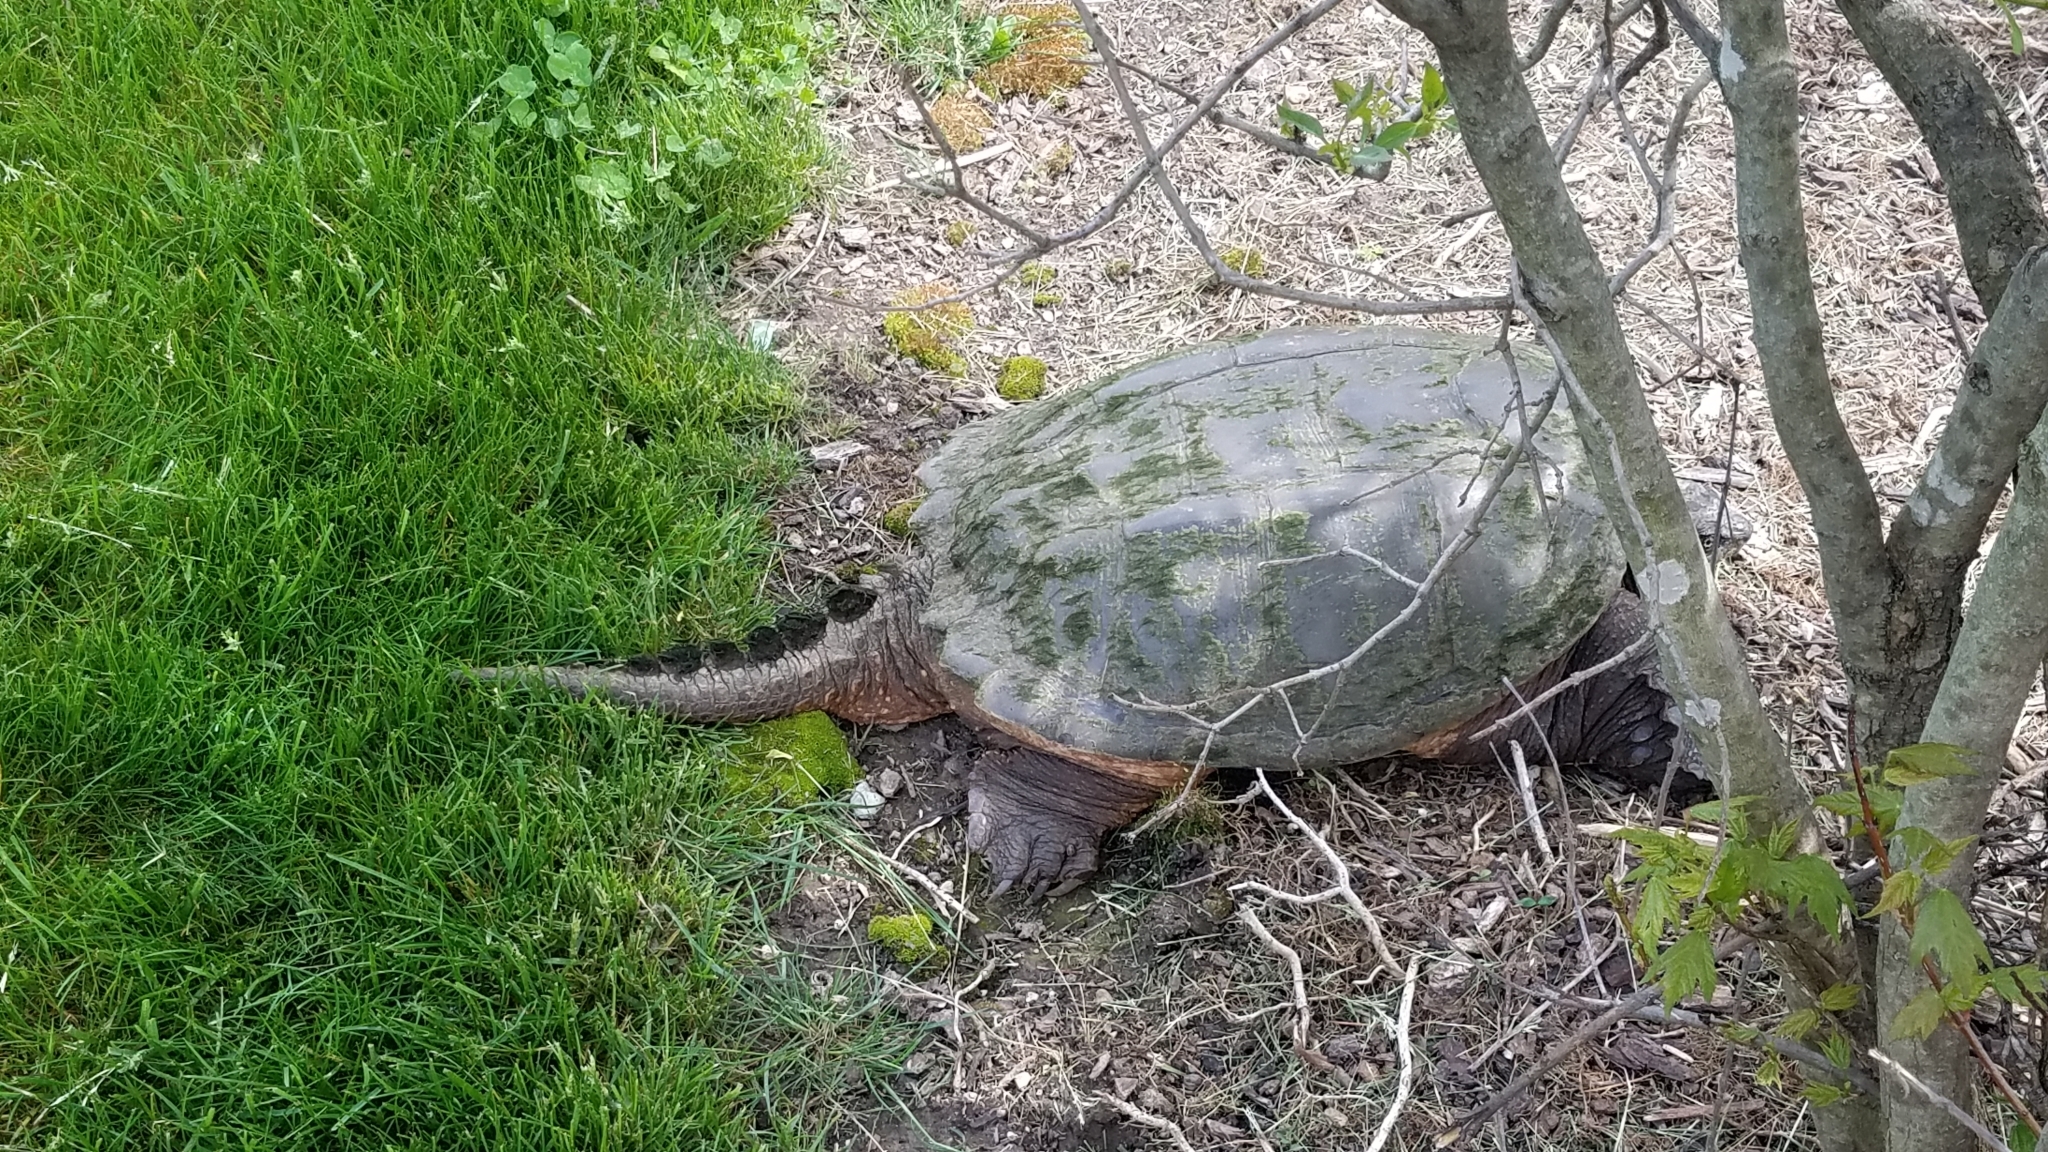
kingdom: Animalia
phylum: Chordata
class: Testudines
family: Chelydridae
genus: Chelydra
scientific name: Chelydra serpentina
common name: Common snapping turtle
